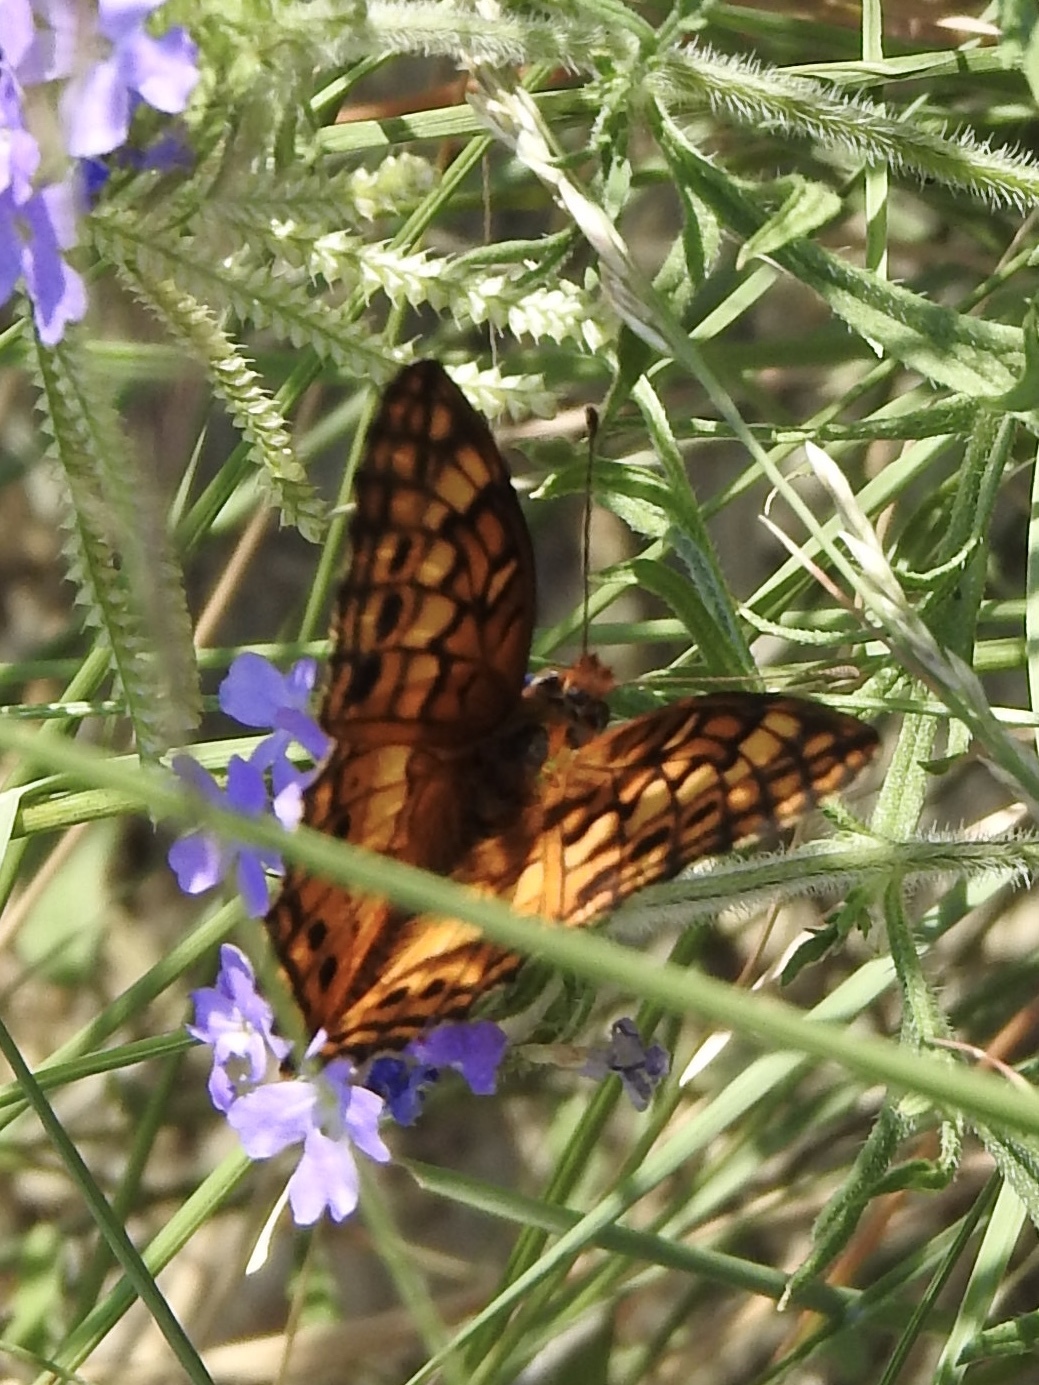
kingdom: Animalia
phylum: Arthropoda
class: Insecta
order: Lepidoptera
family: Nymphalidae
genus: Euptoieta
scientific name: Euptoieta claudia
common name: Variegated fritillary
